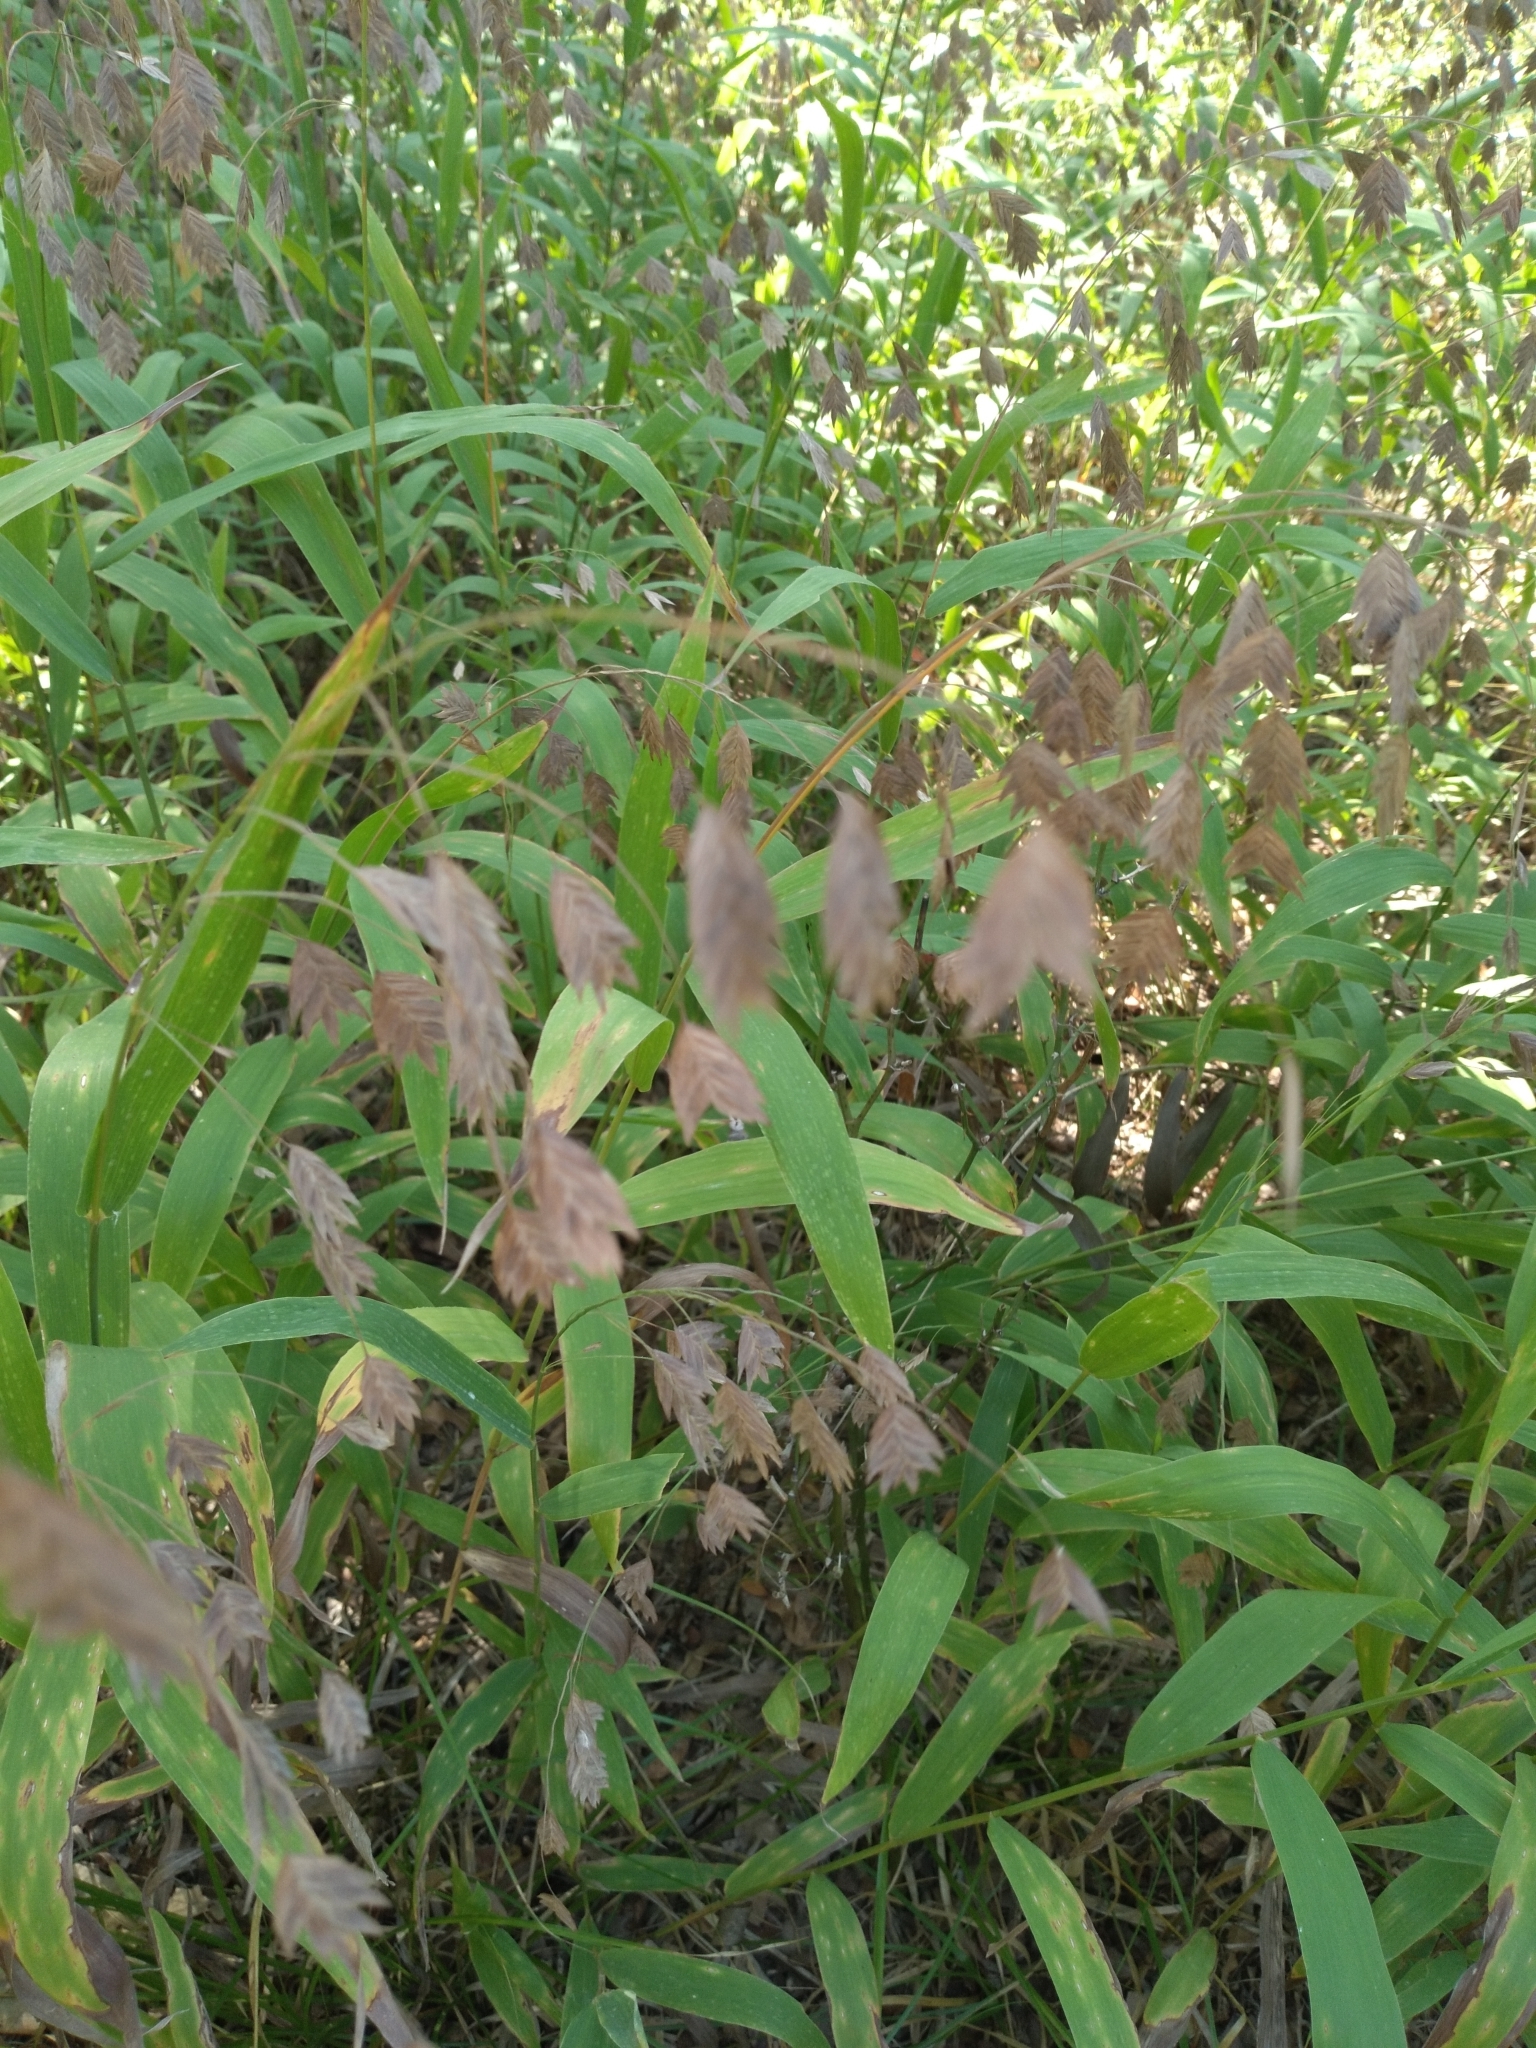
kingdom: Plantae
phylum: Tracheophyta
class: Liliopsida
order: Poales
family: Poaceae
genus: Chasmanthium
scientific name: Chasmanthium latifolium
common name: Broad-leaved chasmanthium
